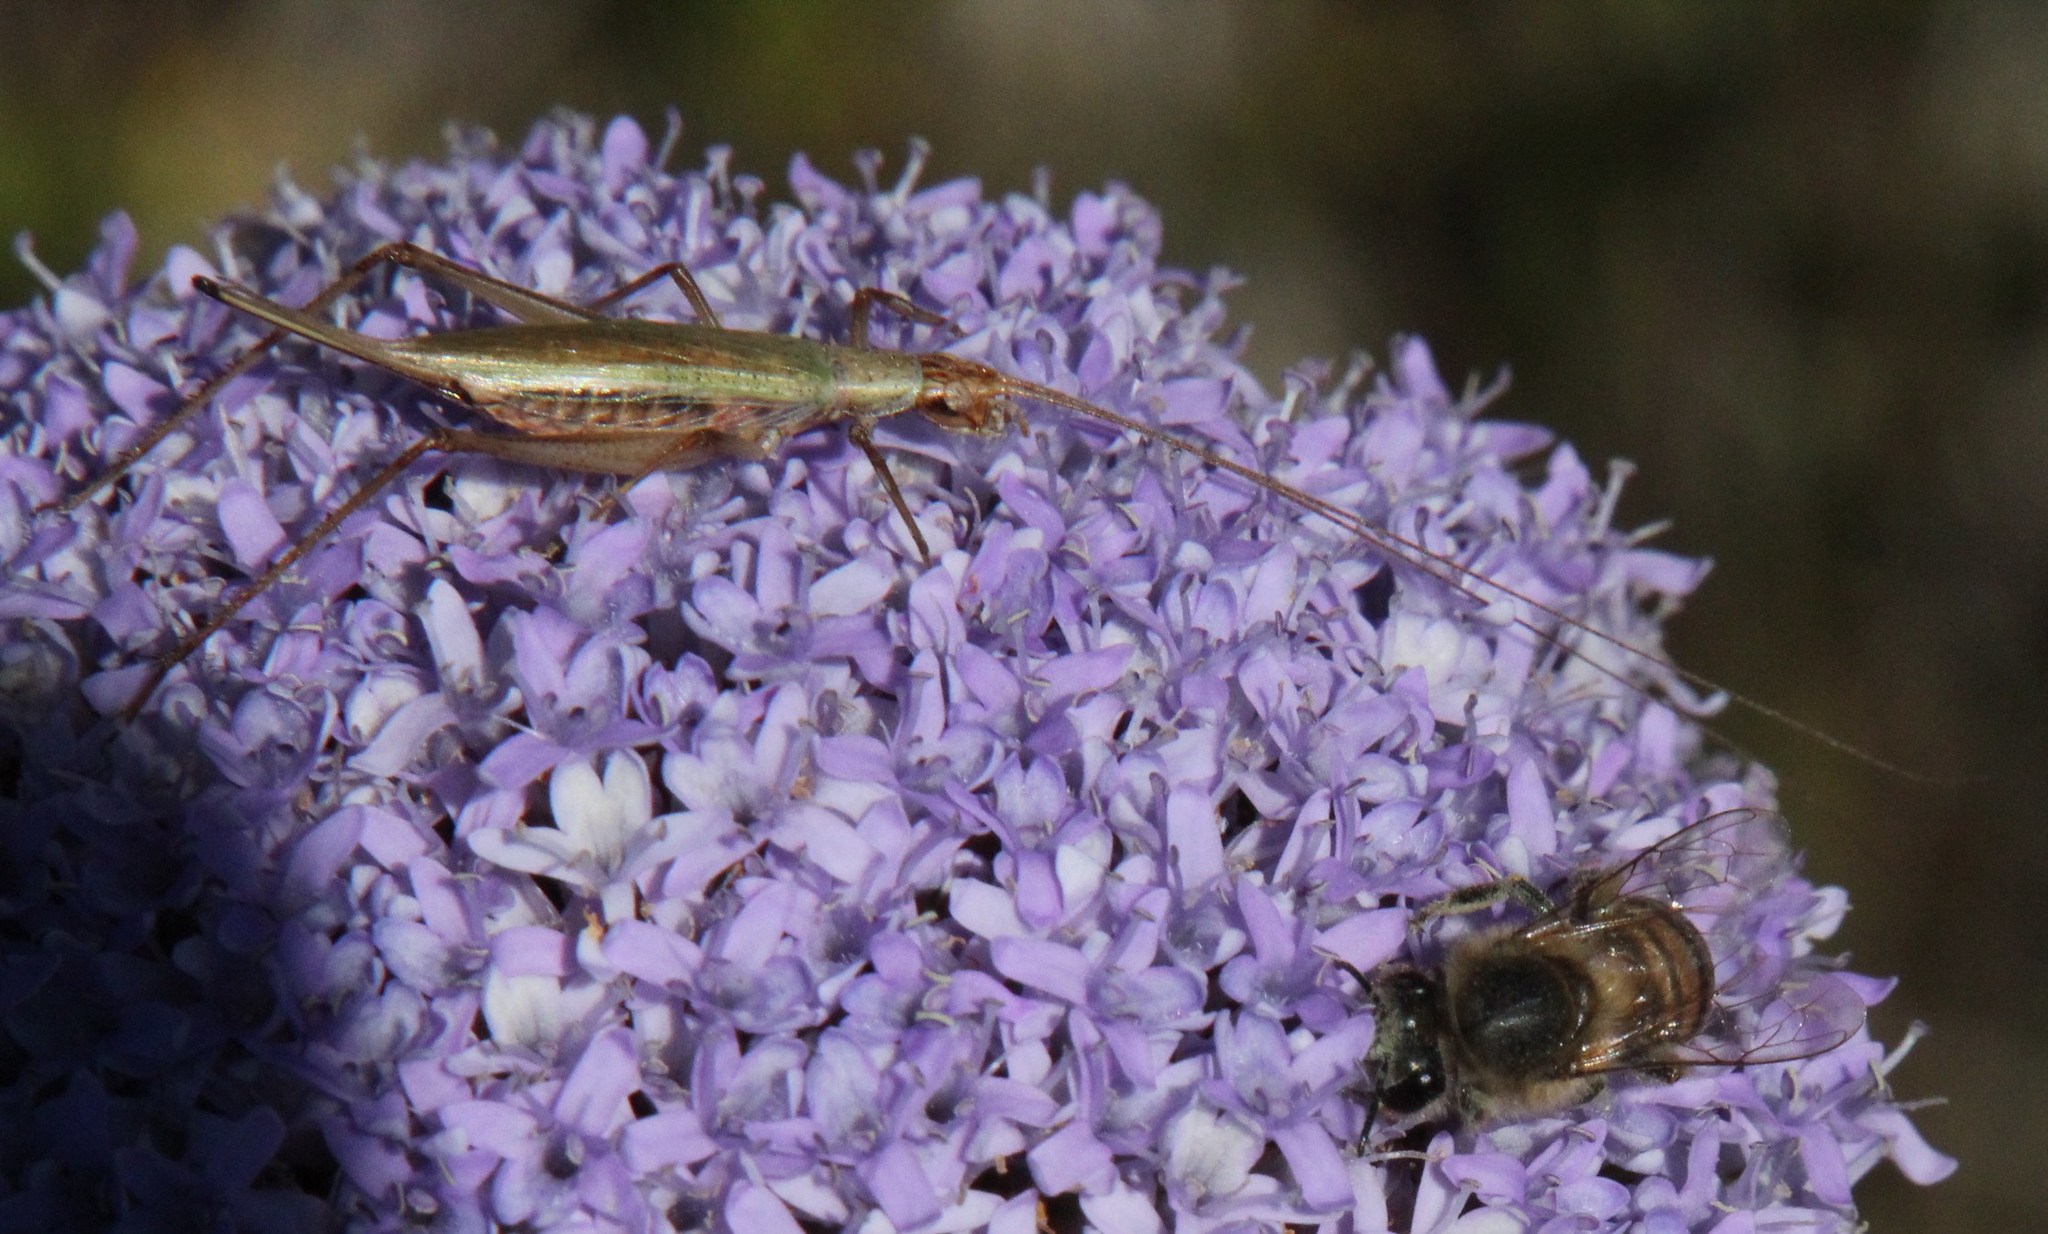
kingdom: Animalia
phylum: Arthropoda
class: Insecta
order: Hymenoptera
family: Apidae
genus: Apis
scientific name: Apis mellifera
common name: Honey bee
